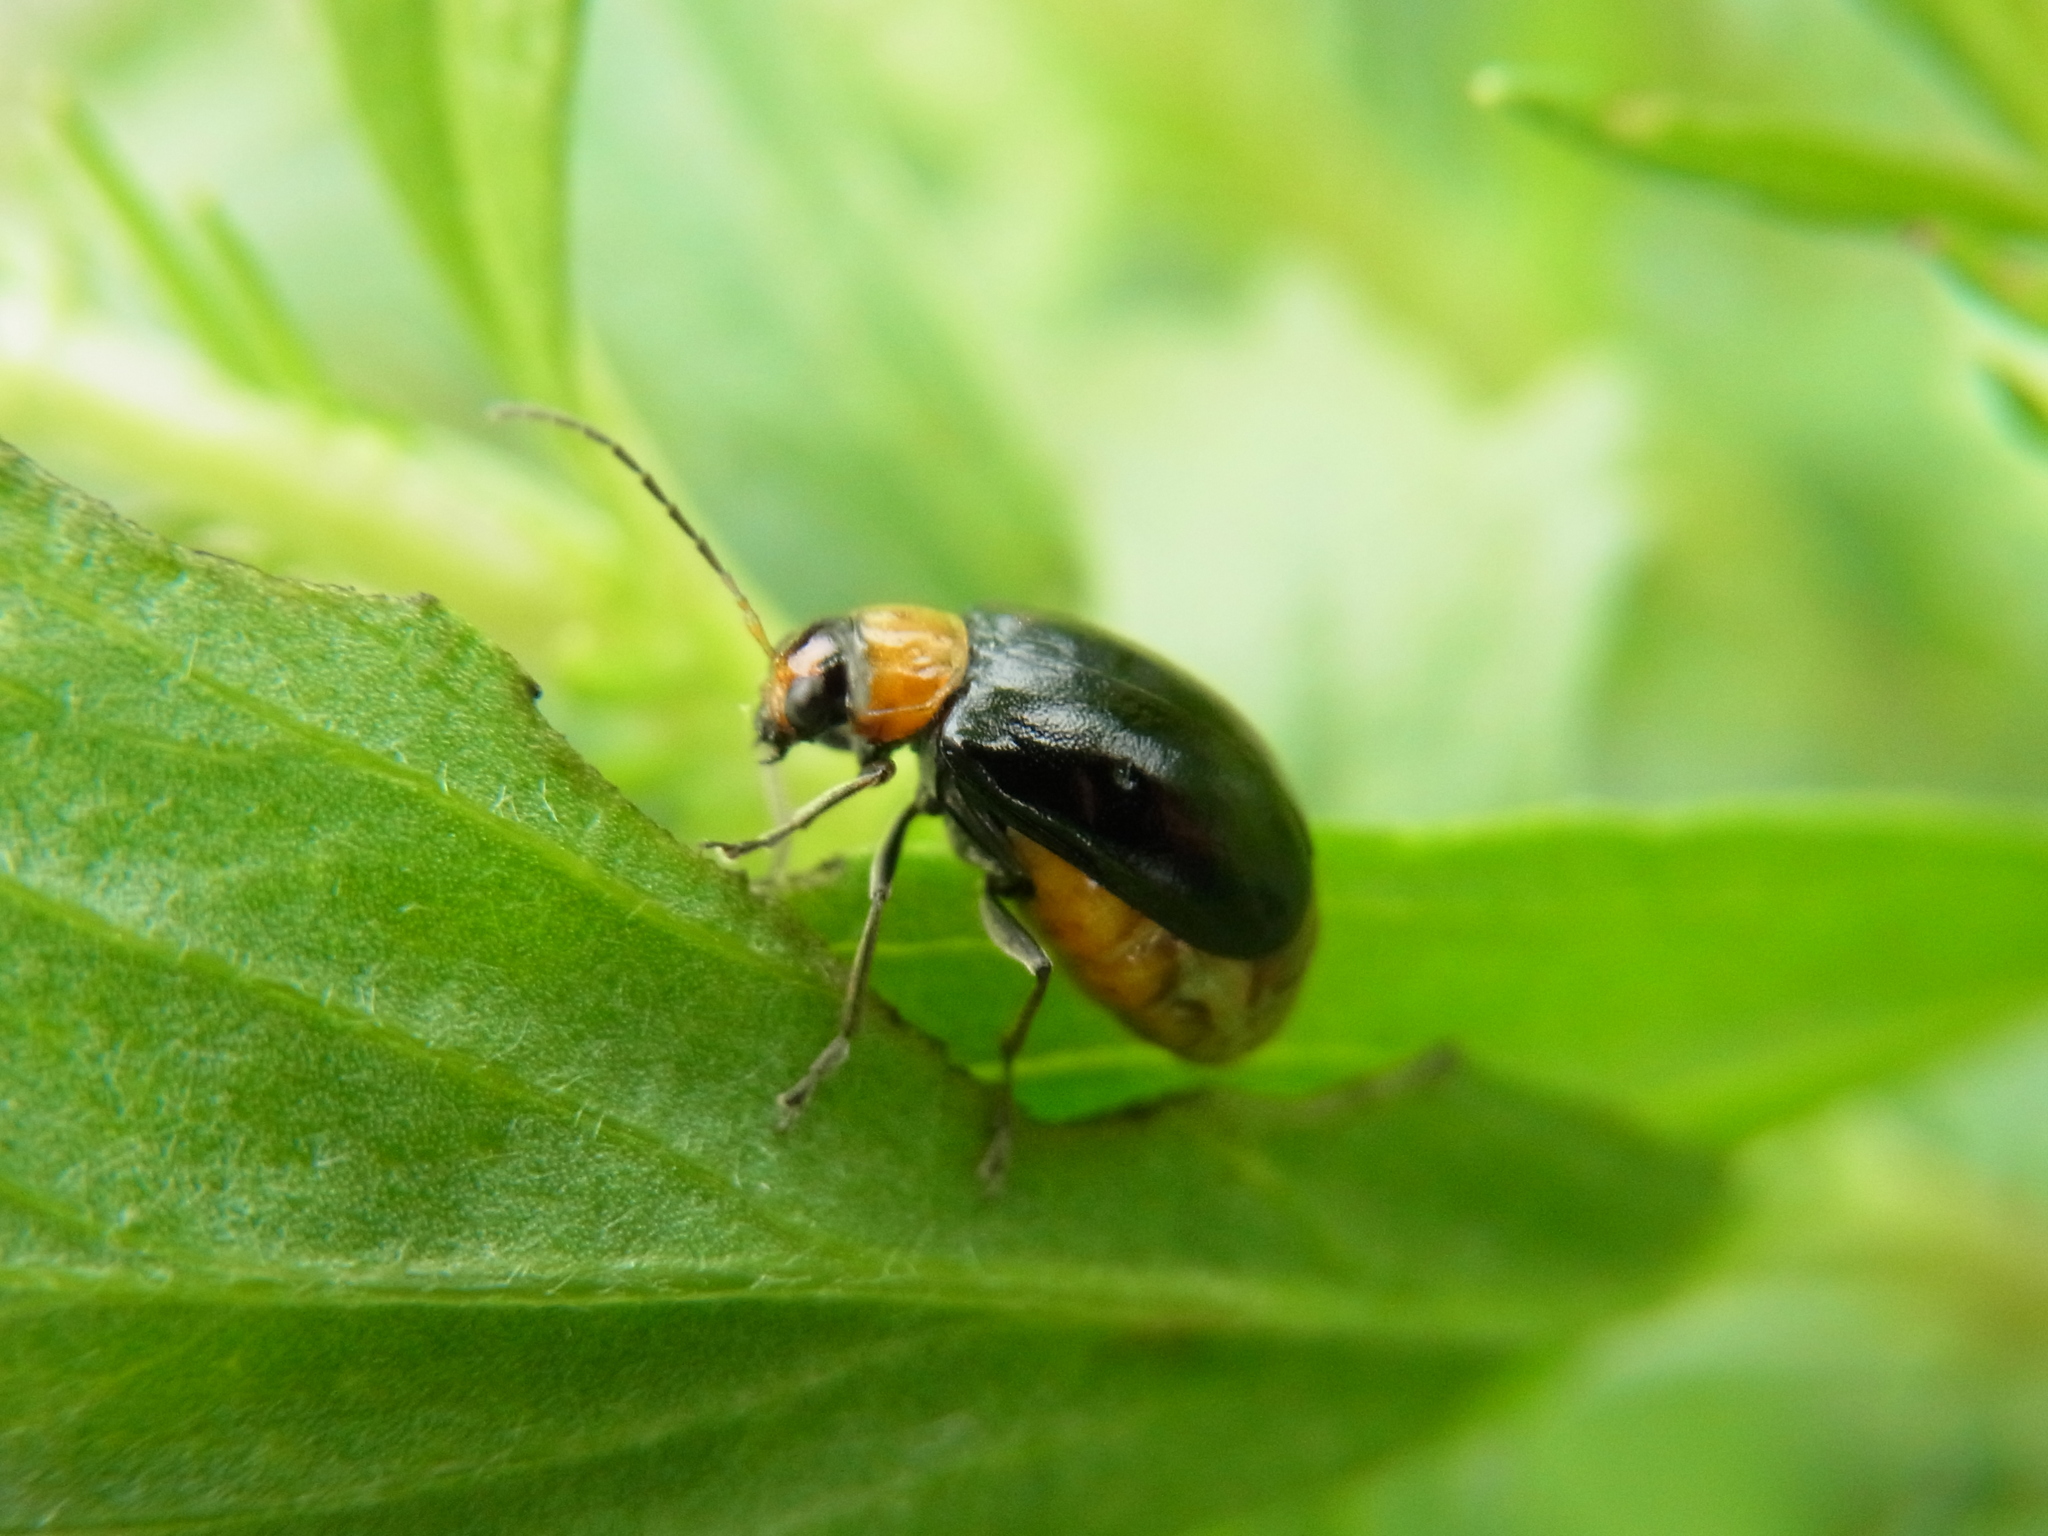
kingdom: Animalia
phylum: Arthropoda
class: Insecta
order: Coleoptera
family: Chrysomelidae
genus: Atrachya
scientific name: Atrachya menetriesi
